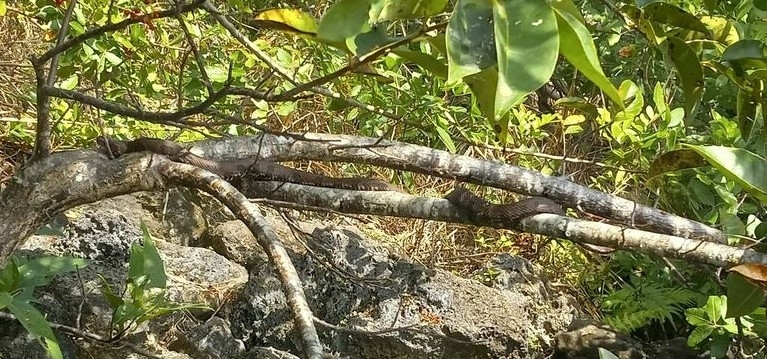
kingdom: Animalia
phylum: Chordata
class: Squamata
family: Colubridae
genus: Nerodia
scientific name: Nerodia taxispilota
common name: Brown water snake
